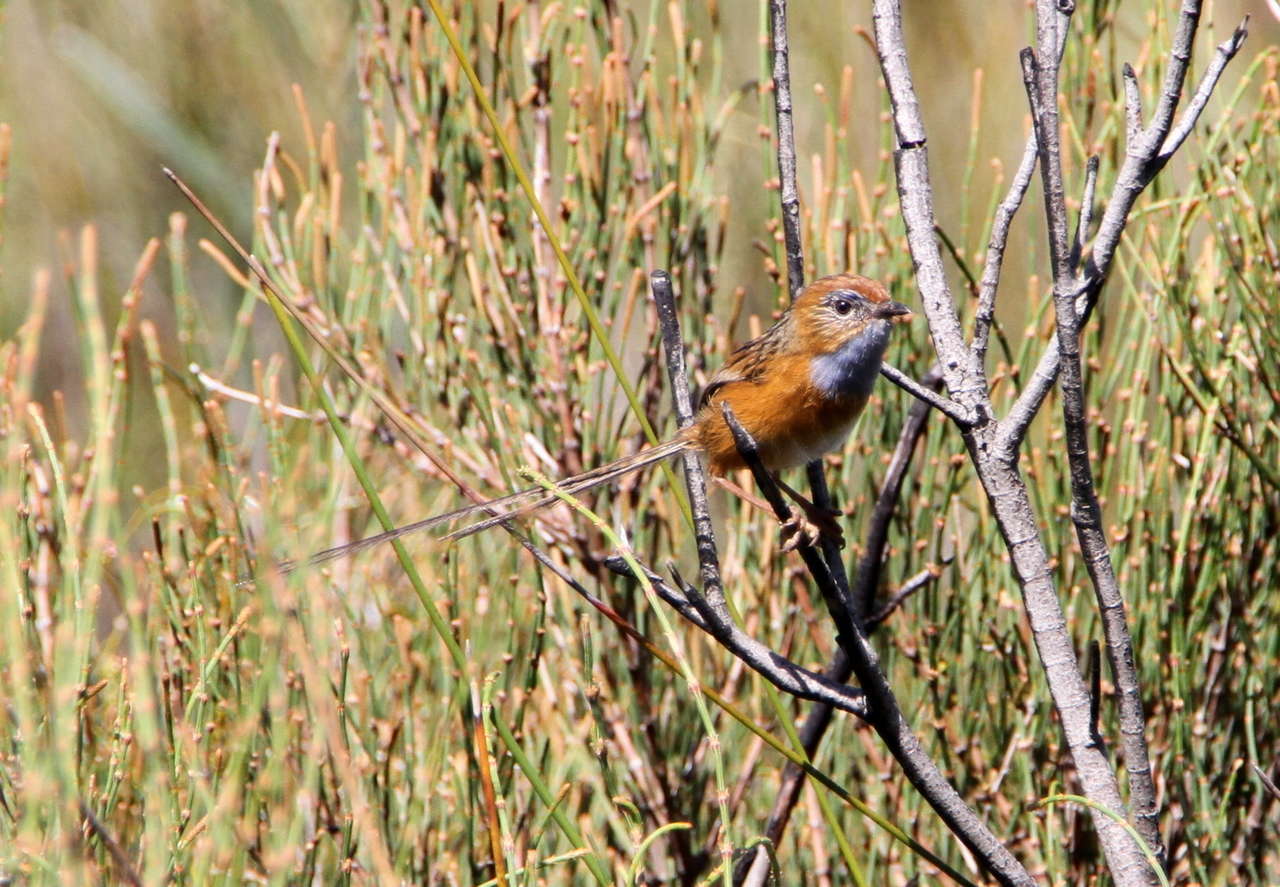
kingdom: Animalia
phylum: Chordata
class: Aves
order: Passeriformes
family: Maluridae
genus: Stipiturus
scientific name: Stipiturus malachurus
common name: Southern emu-wren
